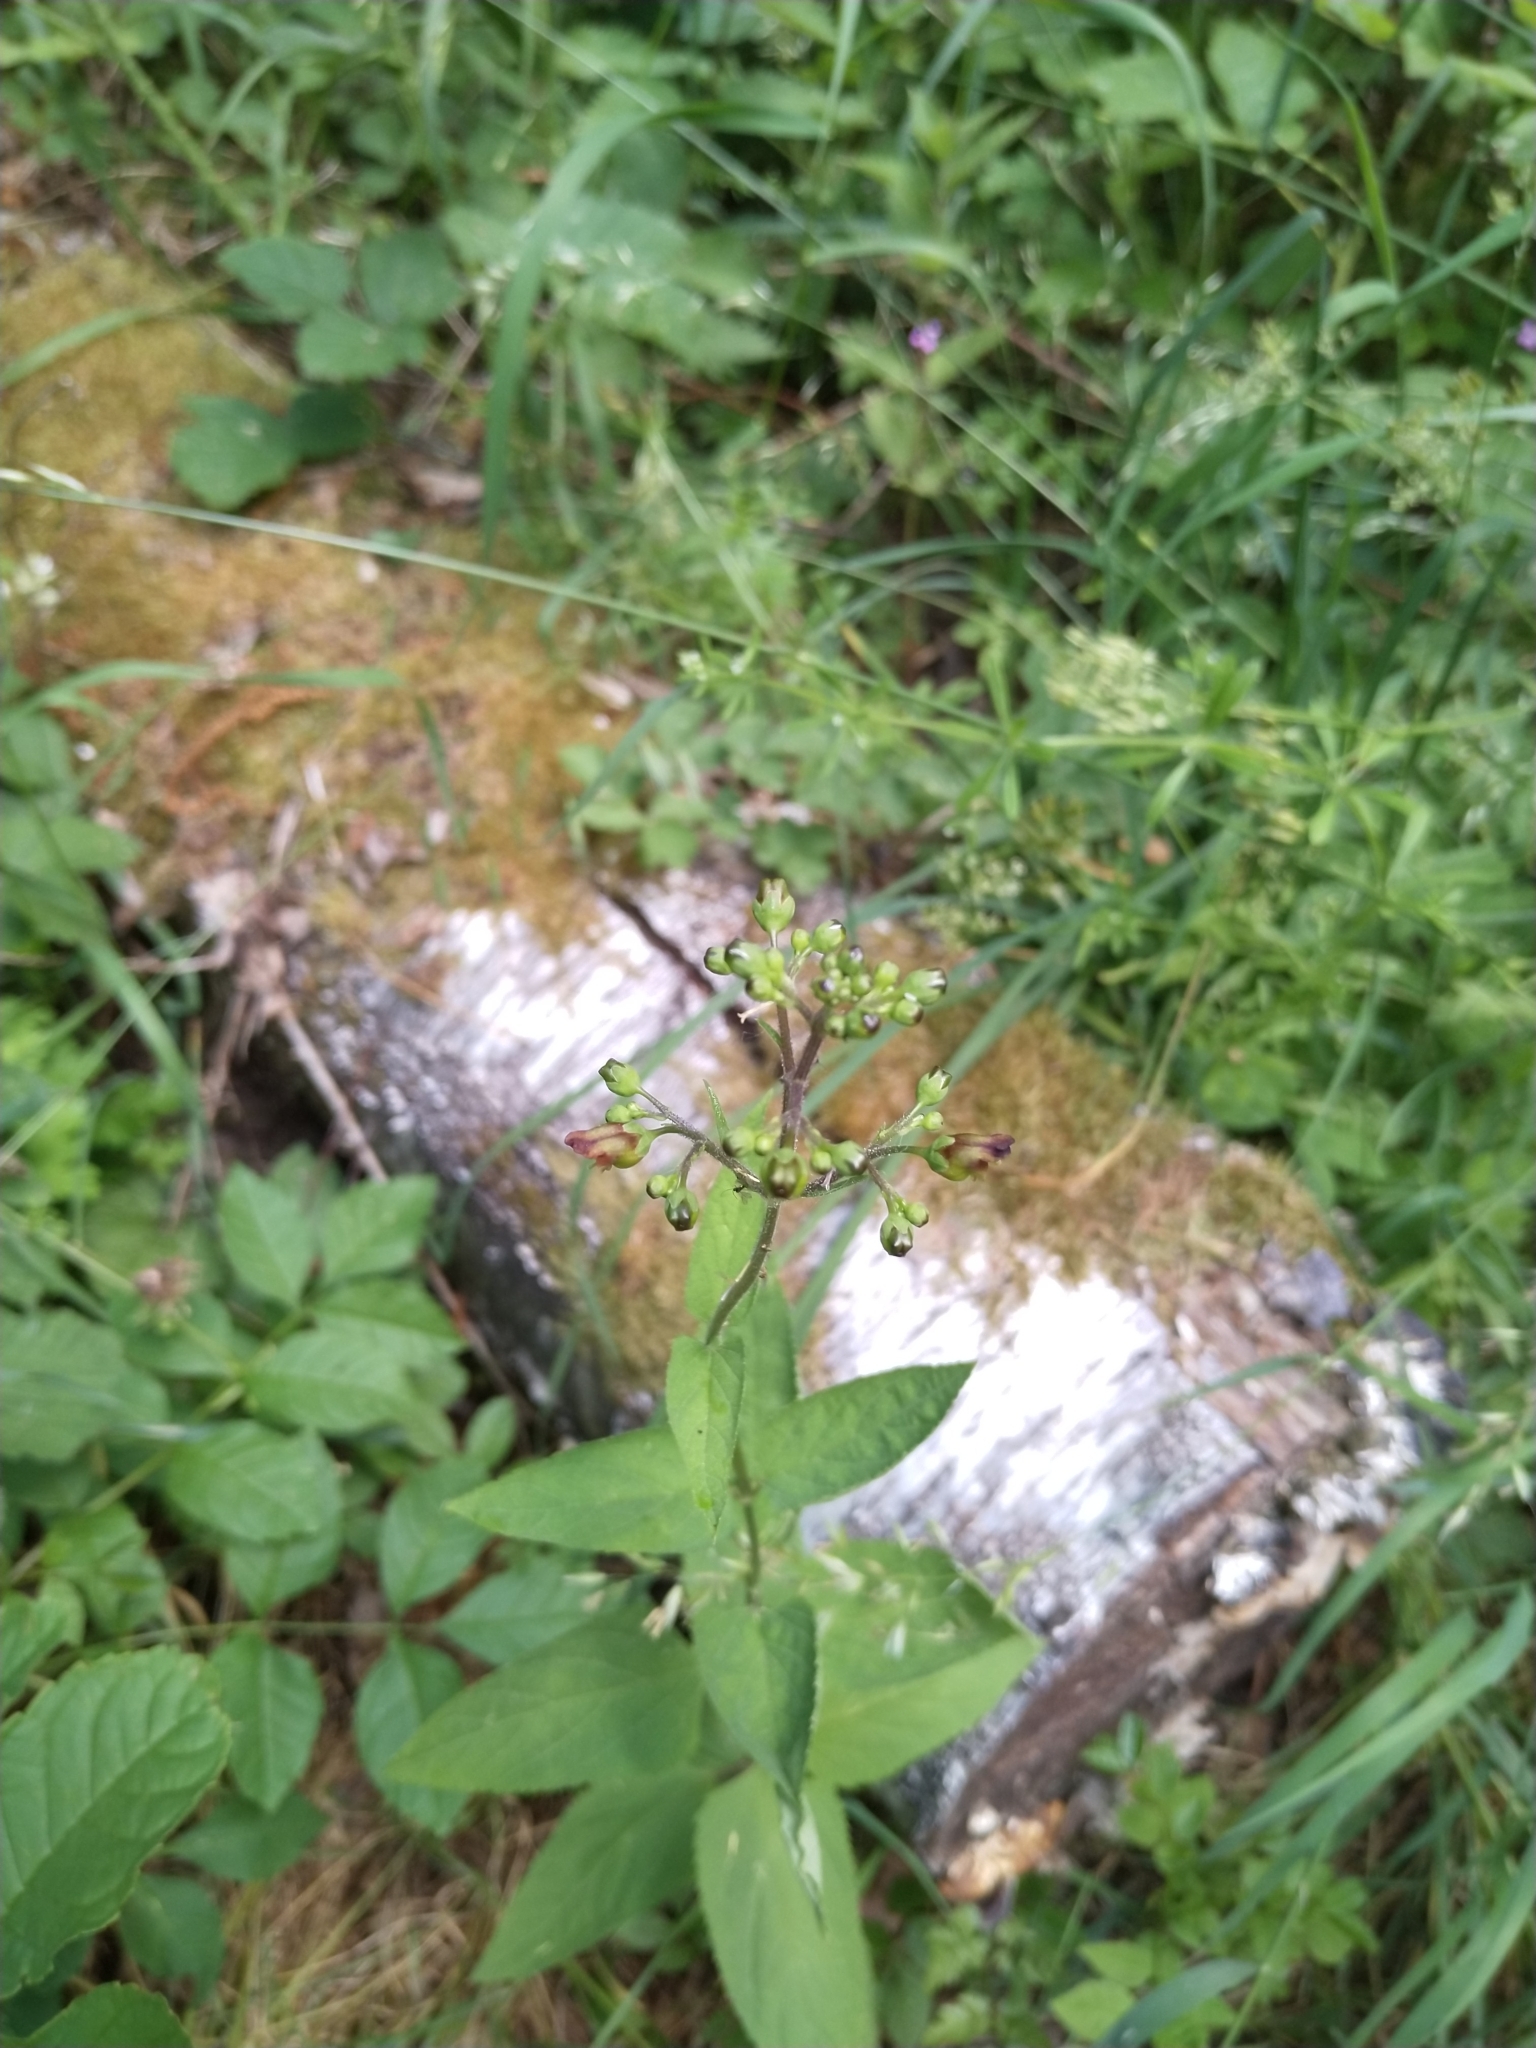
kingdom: Plantae
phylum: Tracheophyta
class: Magnoliopsida
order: Lamiales
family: Scrophulariaceae
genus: Scrophularia
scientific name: Scrophularia nodosa
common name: Common figwort
